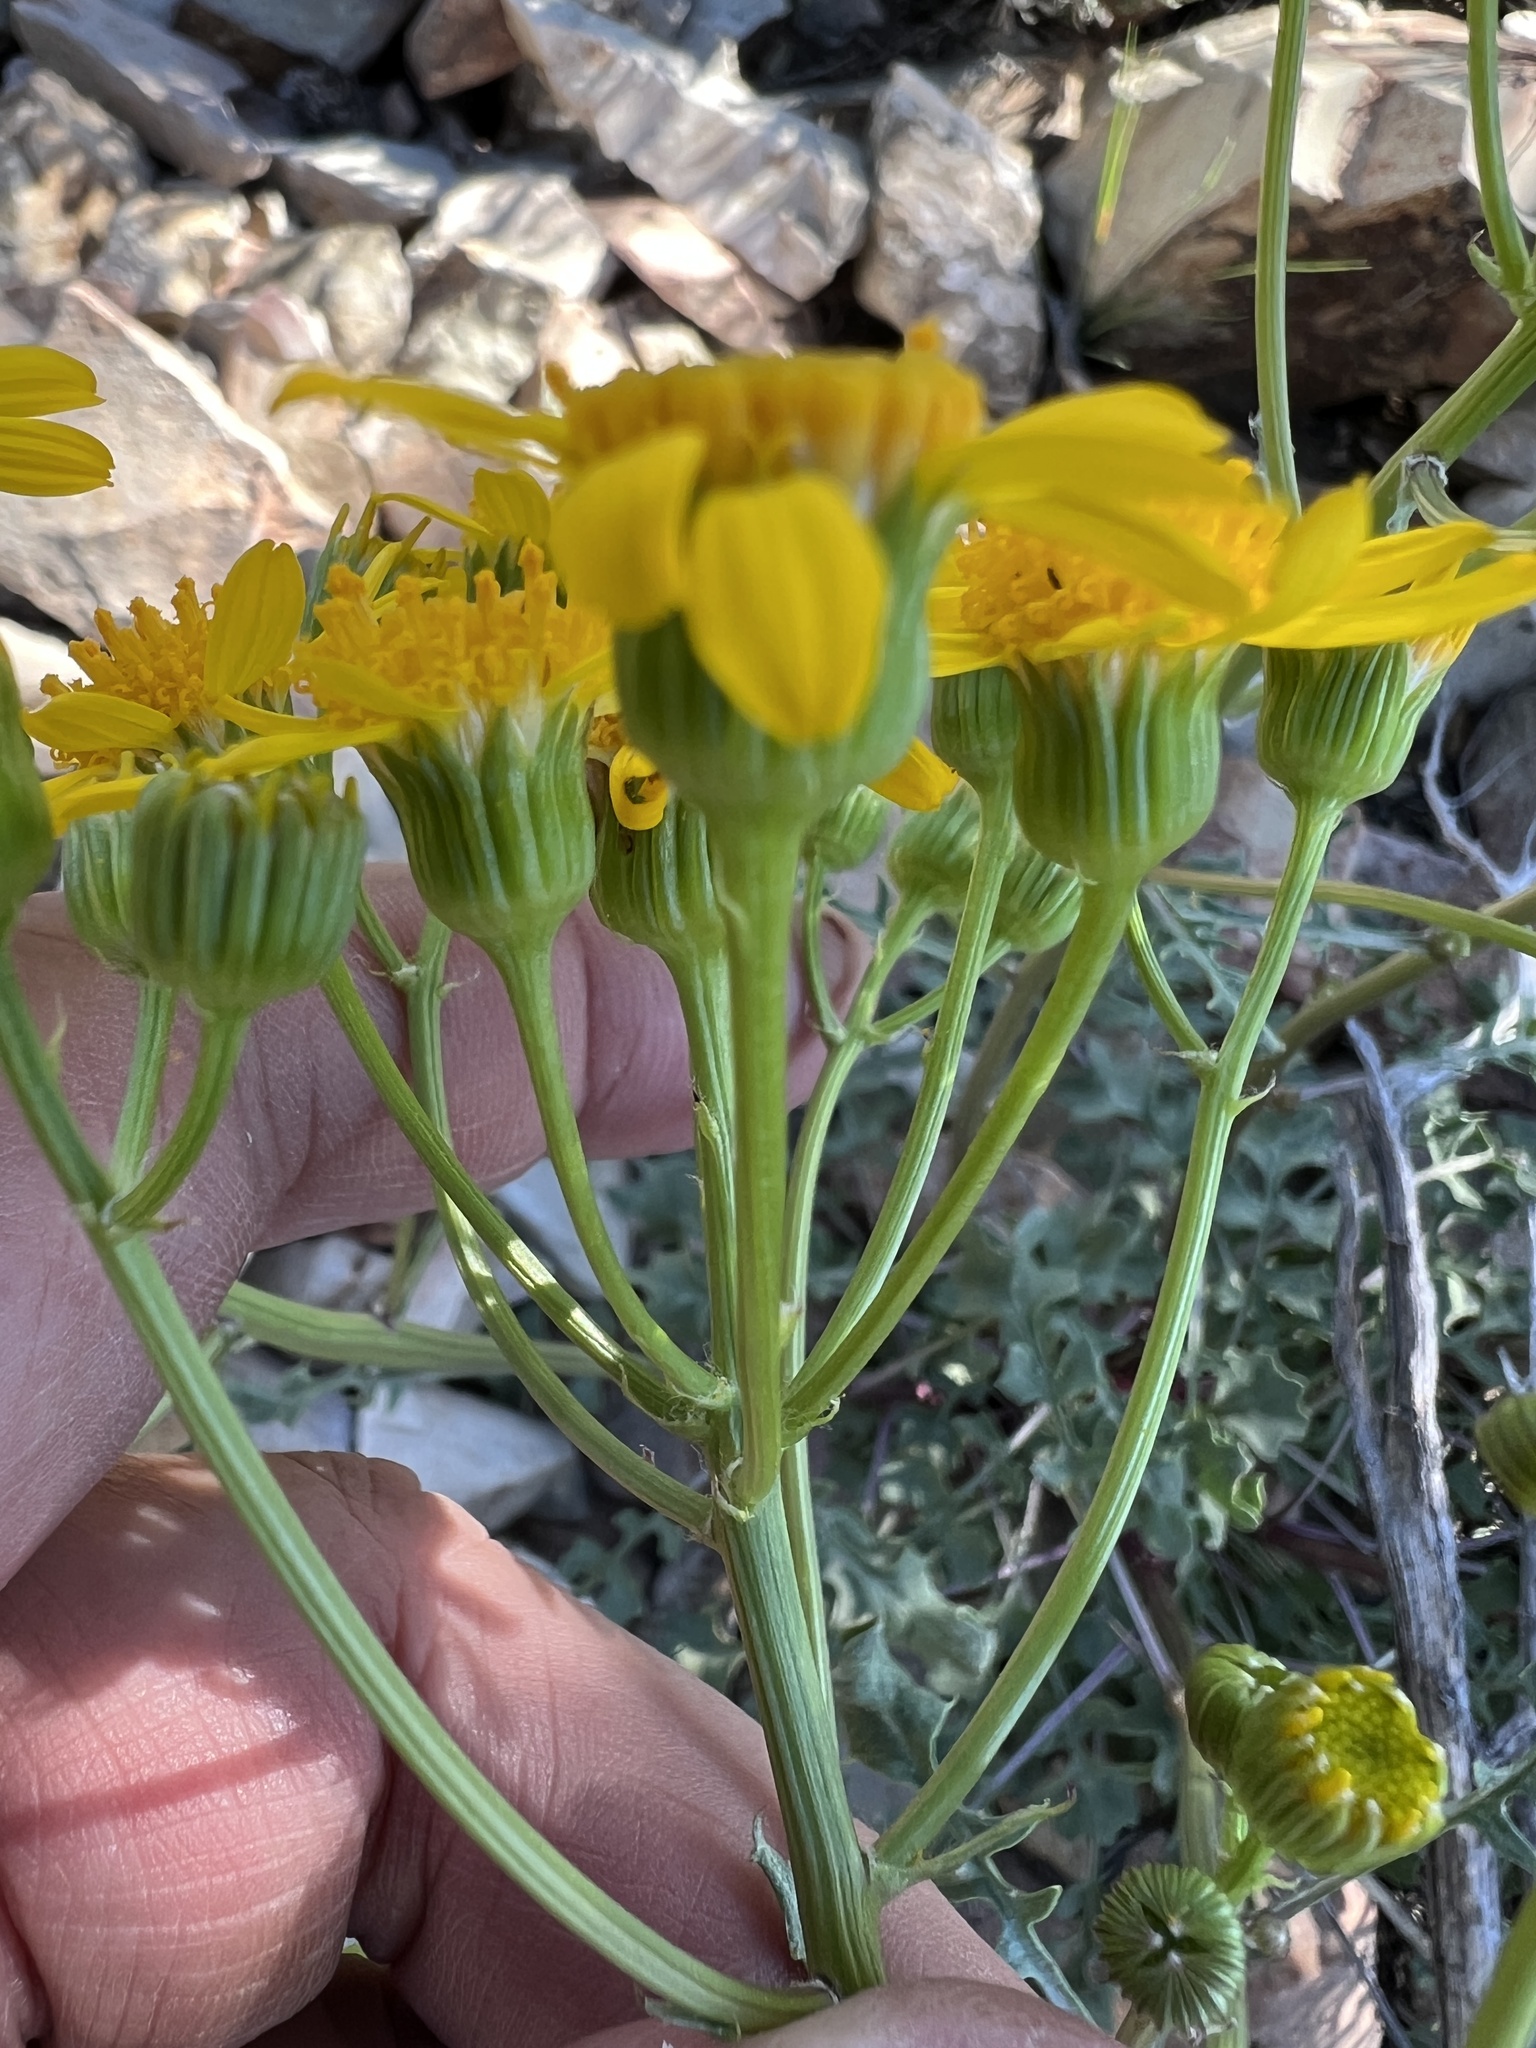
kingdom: Plantae
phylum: Tracheophyta
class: Magnoliopsida
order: Asterales
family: Asteraceae
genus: Packera
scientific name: Packera multilobata
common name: Lobe-leaf groundsel
